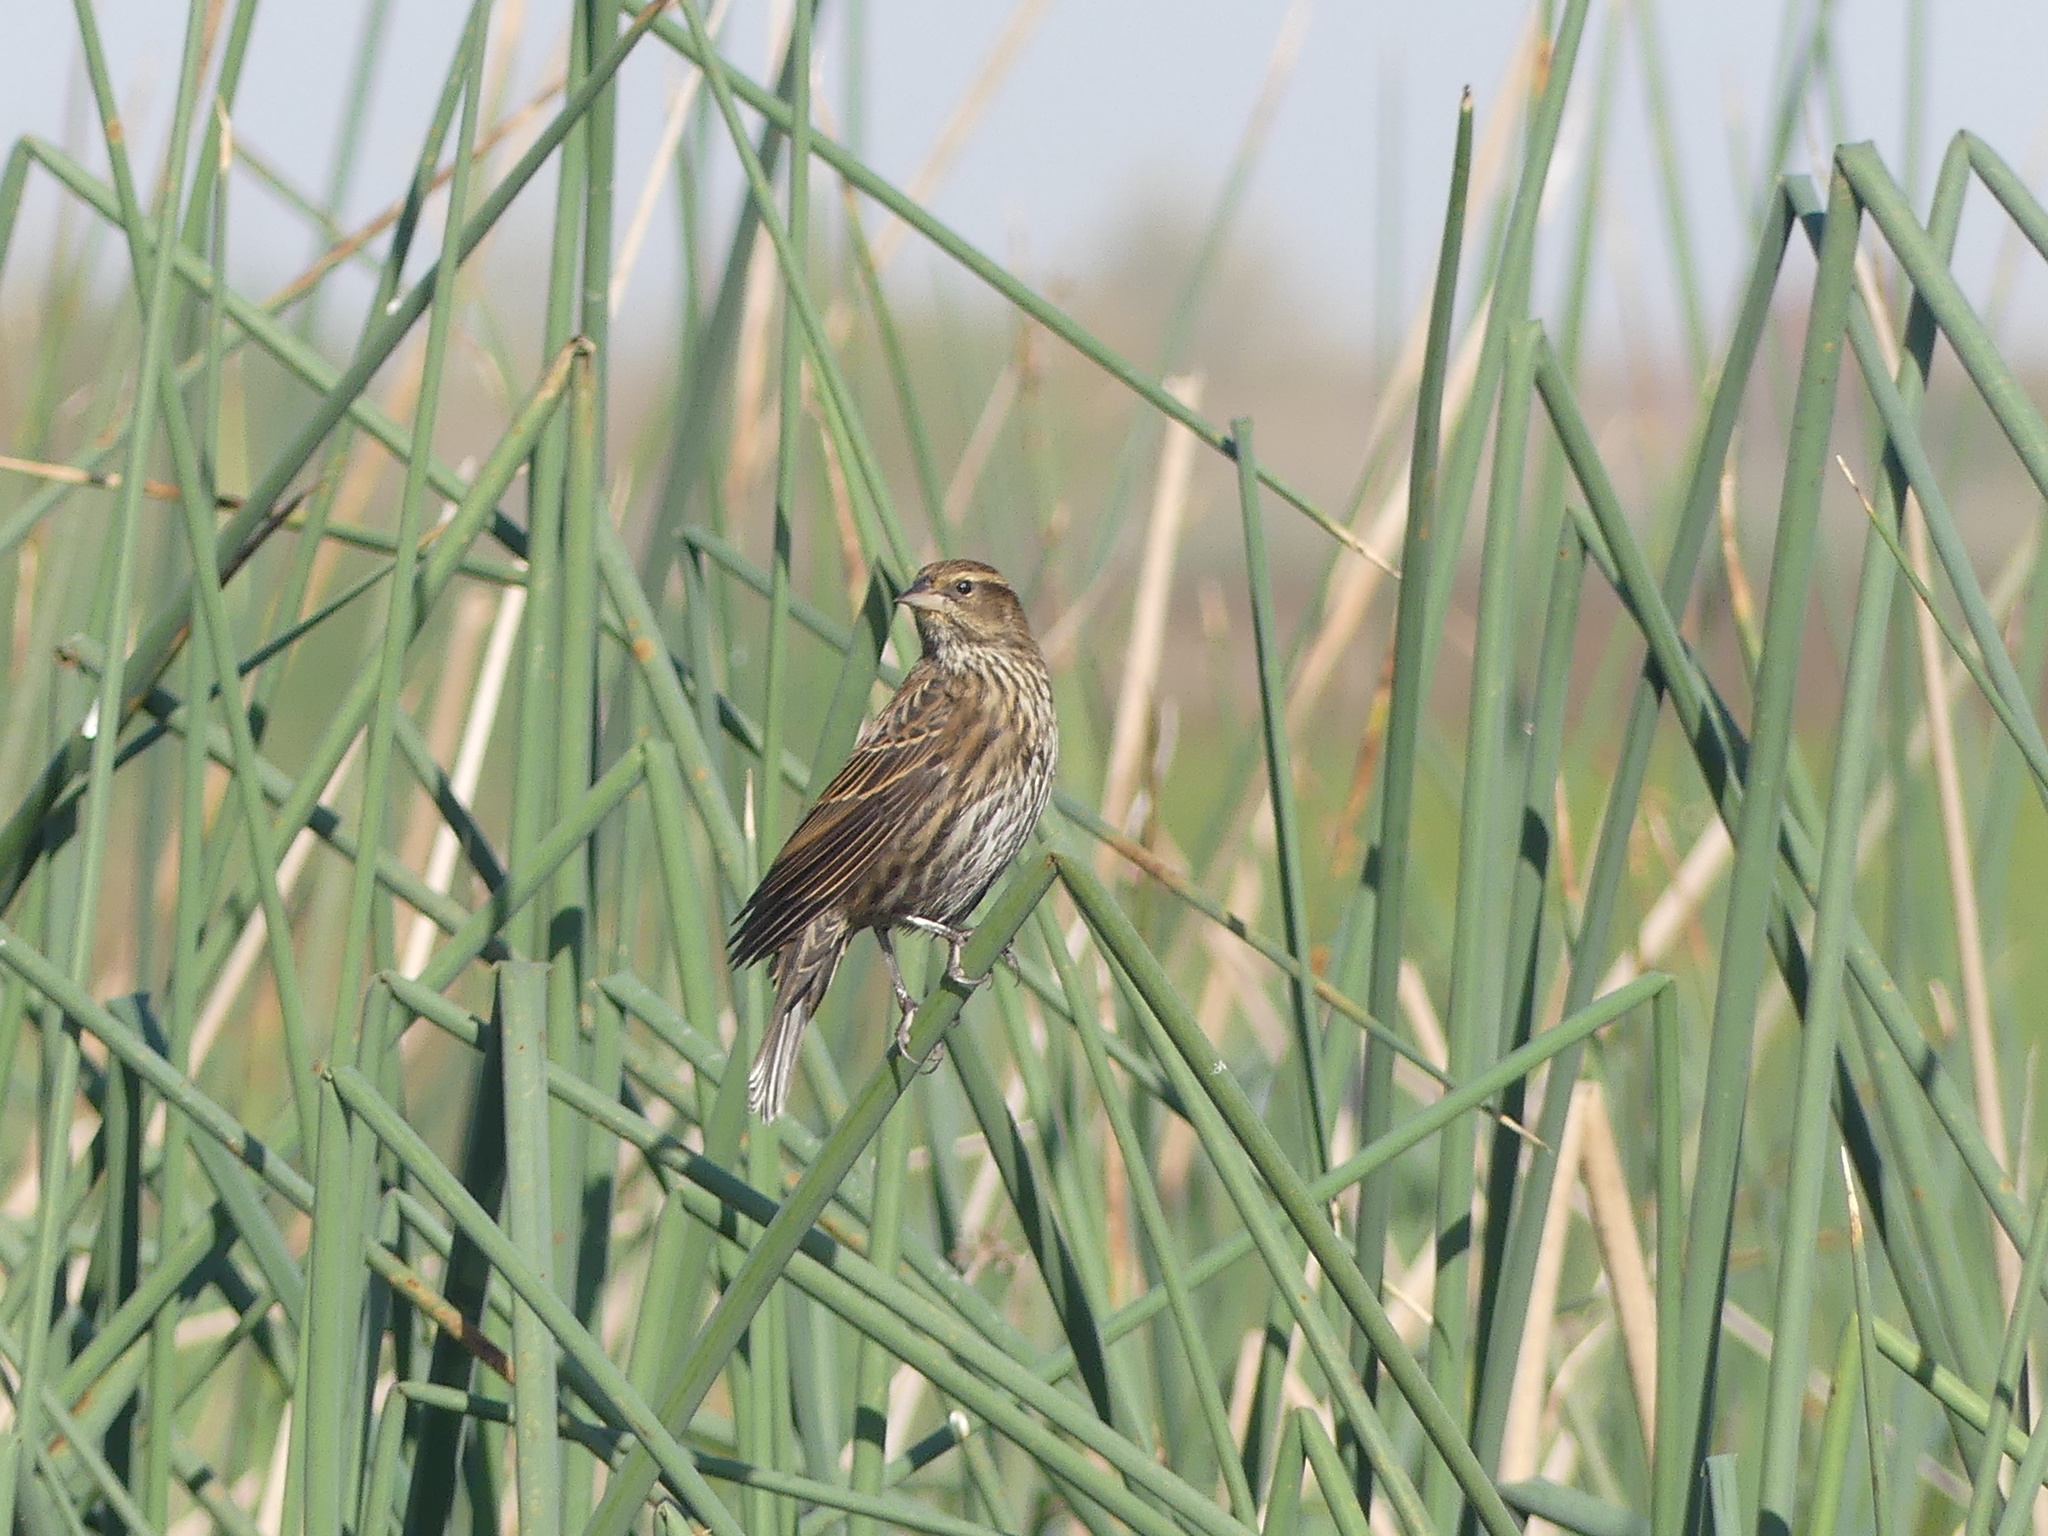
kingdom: Animalia
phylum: Chordata
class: Aves
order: Passeriformes
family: Icteridae
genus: Agelaius
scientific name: Agelaius phoeniceus
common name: Red-winged blackbird
